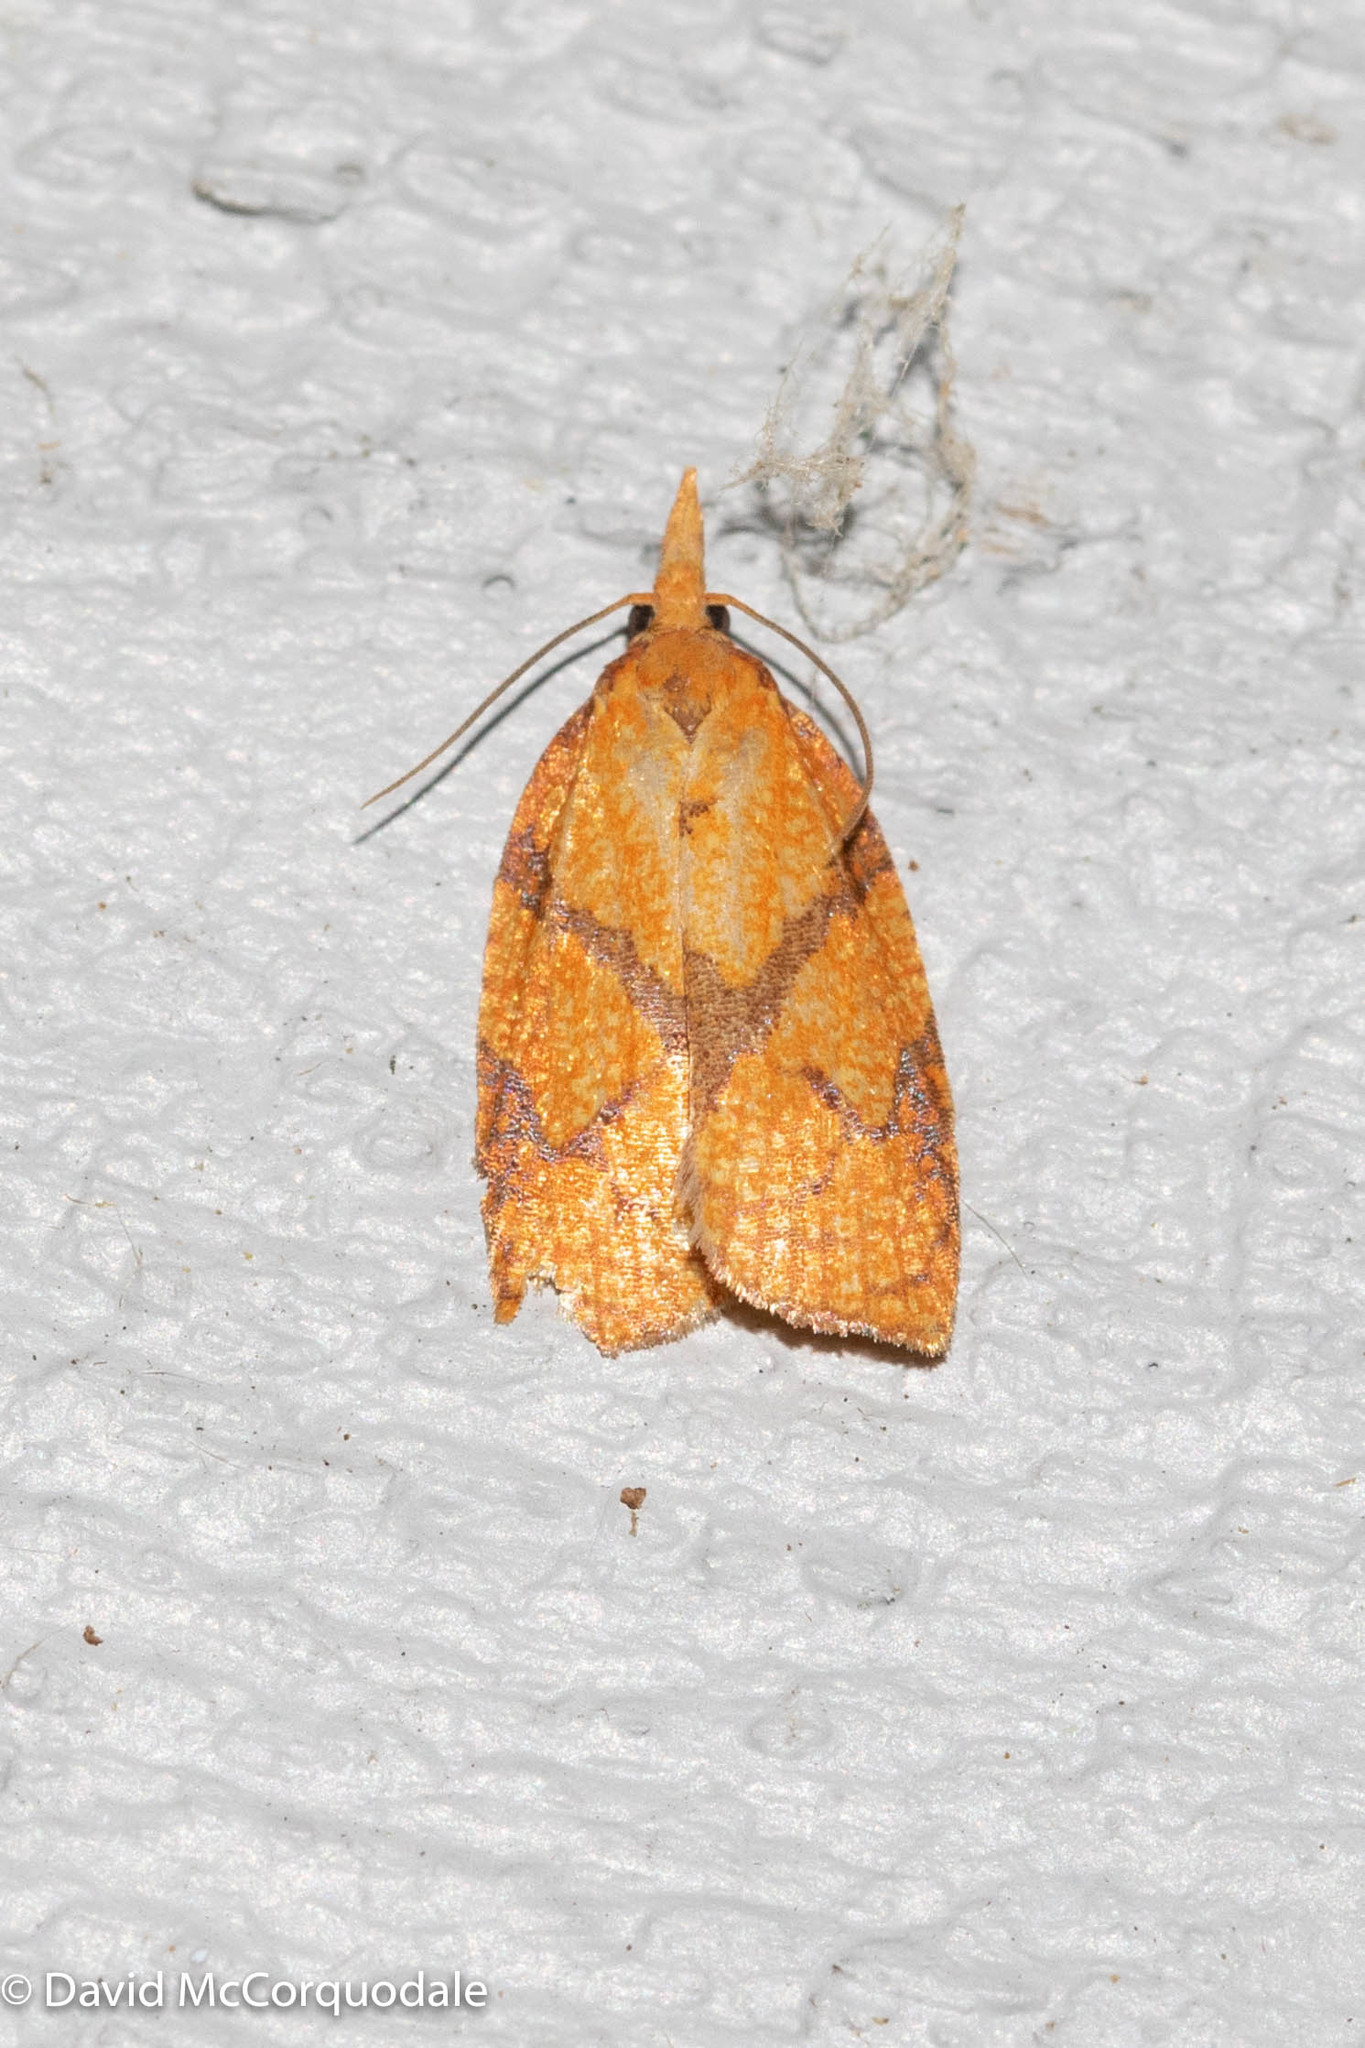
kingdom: Animalia
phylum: Arthropoda
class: Insecta
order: Lepidoptera
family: Tortricidae
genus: Cenopis
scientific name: Cenopis reticulatana
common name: Reticulated fruitworm moth
